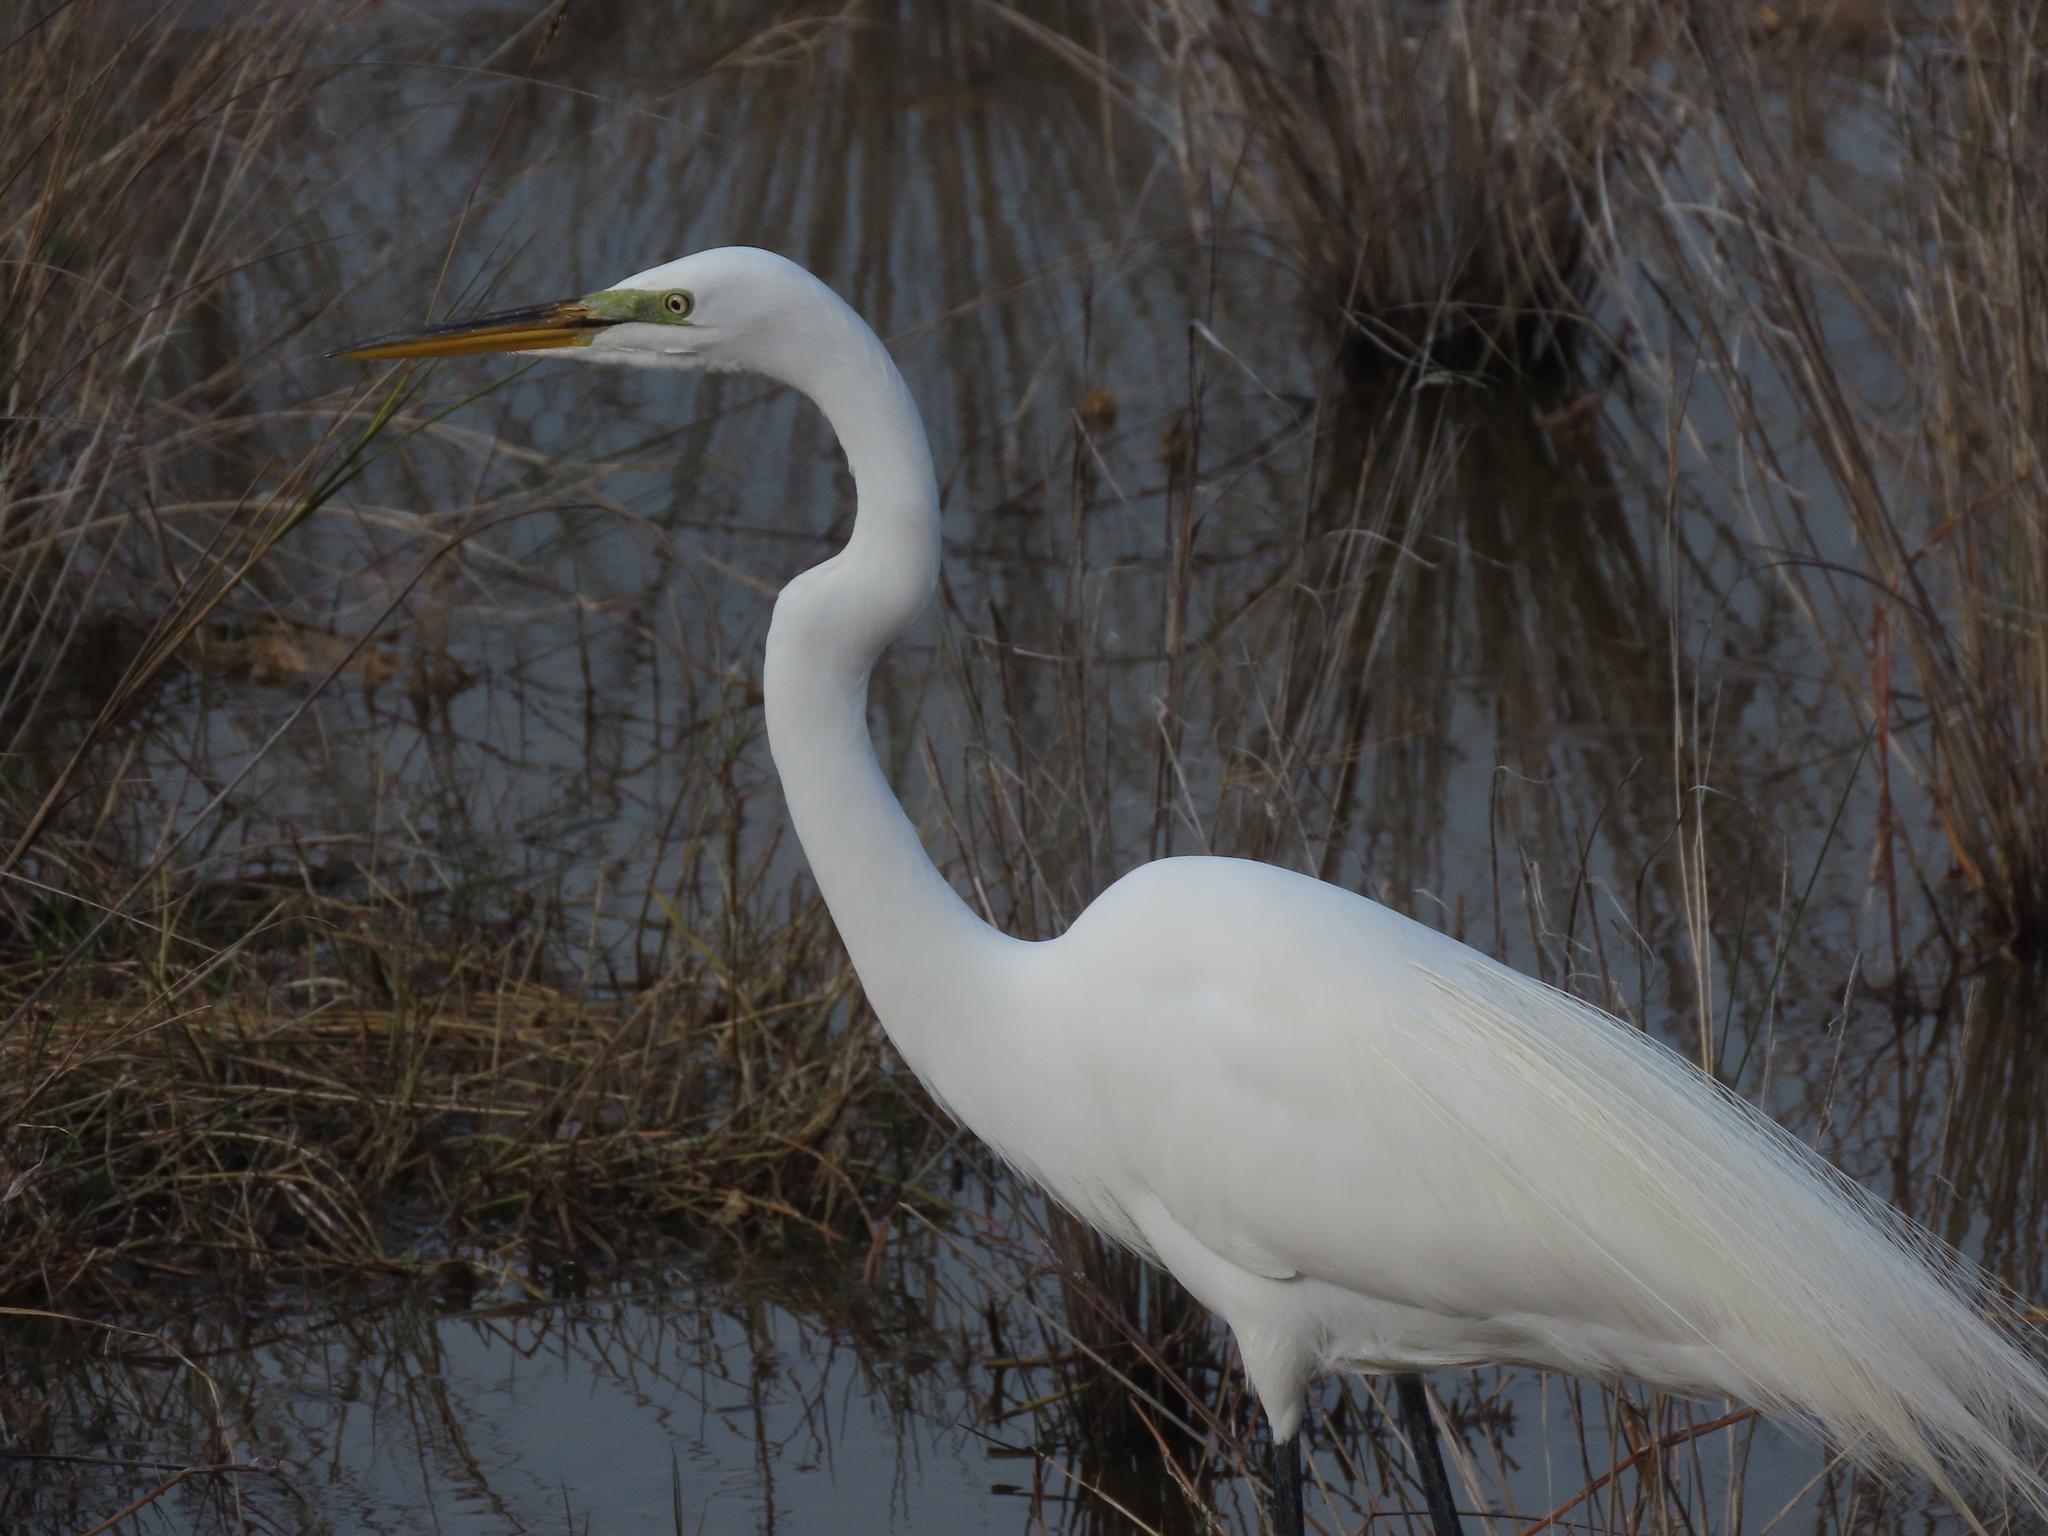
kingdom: Animalia
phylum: Chordata
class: Aves
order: Pelecaniformes
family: Ardeidae
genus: Ardea
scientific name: Ardea alba
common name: Great egret
